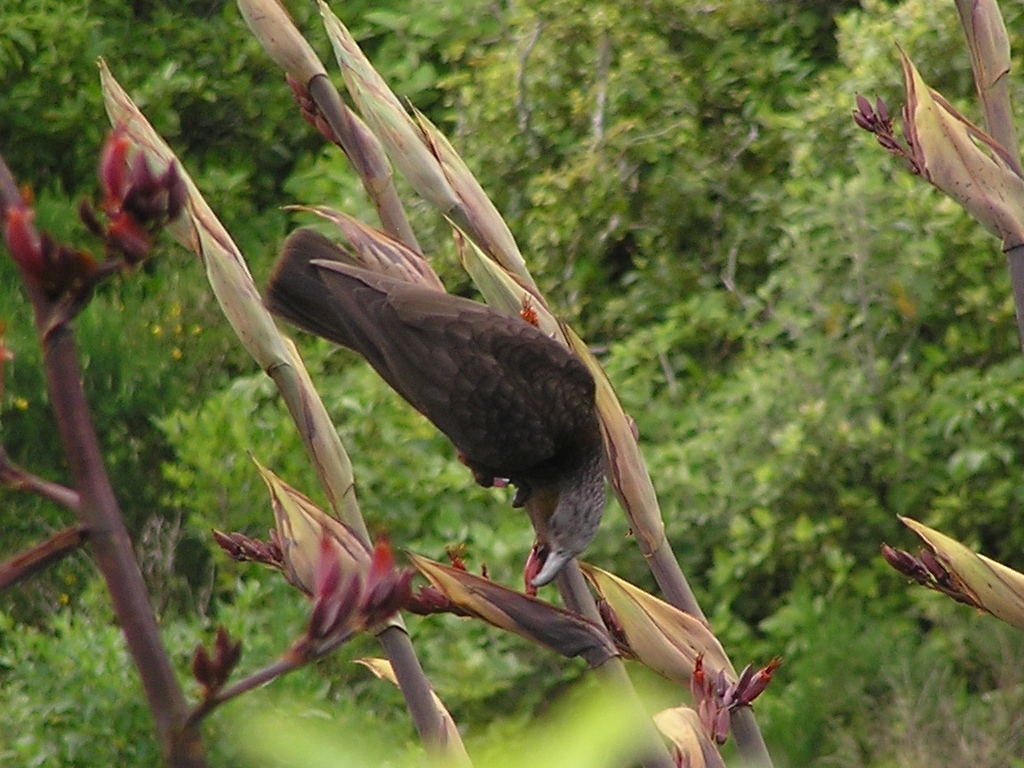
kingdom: Animalia
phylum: Chordata
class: Aves
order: Psittaciformes
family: Psittacidae
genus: Nestor
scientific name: Nestor meridionalis
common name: New zealand kaka
